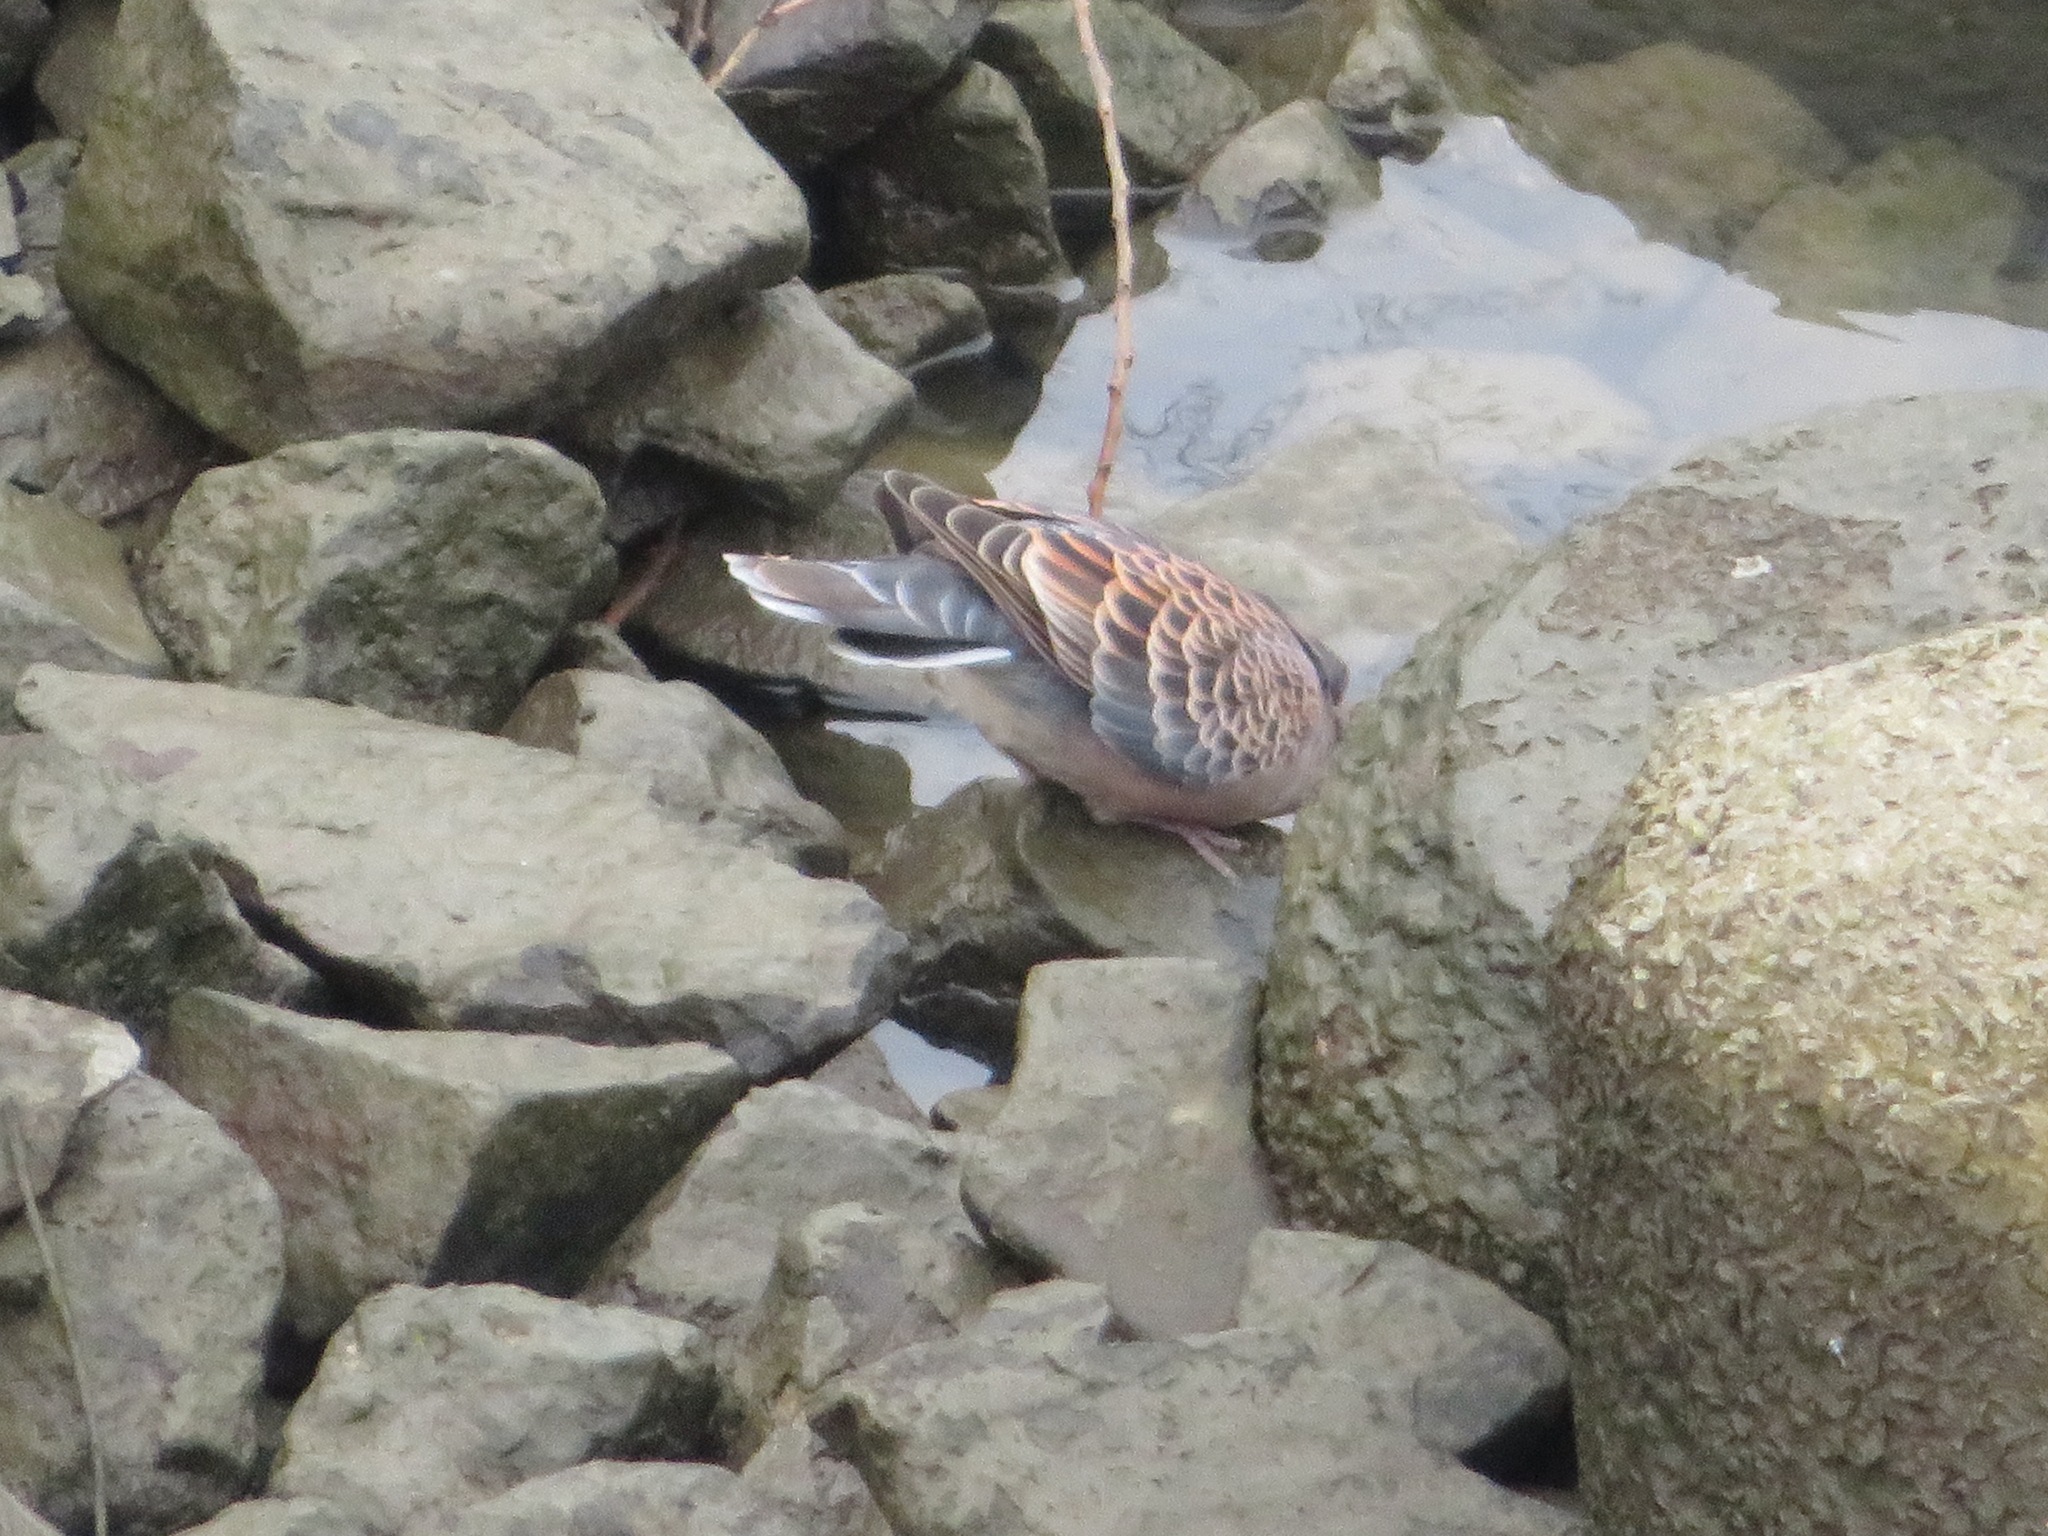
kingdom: Animalia
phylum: Chordata
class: Aves
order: Columbiformes
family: Columbidae
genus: Streptopelia
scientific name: Streptopelia orientalis
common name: Oriental turtle dove
